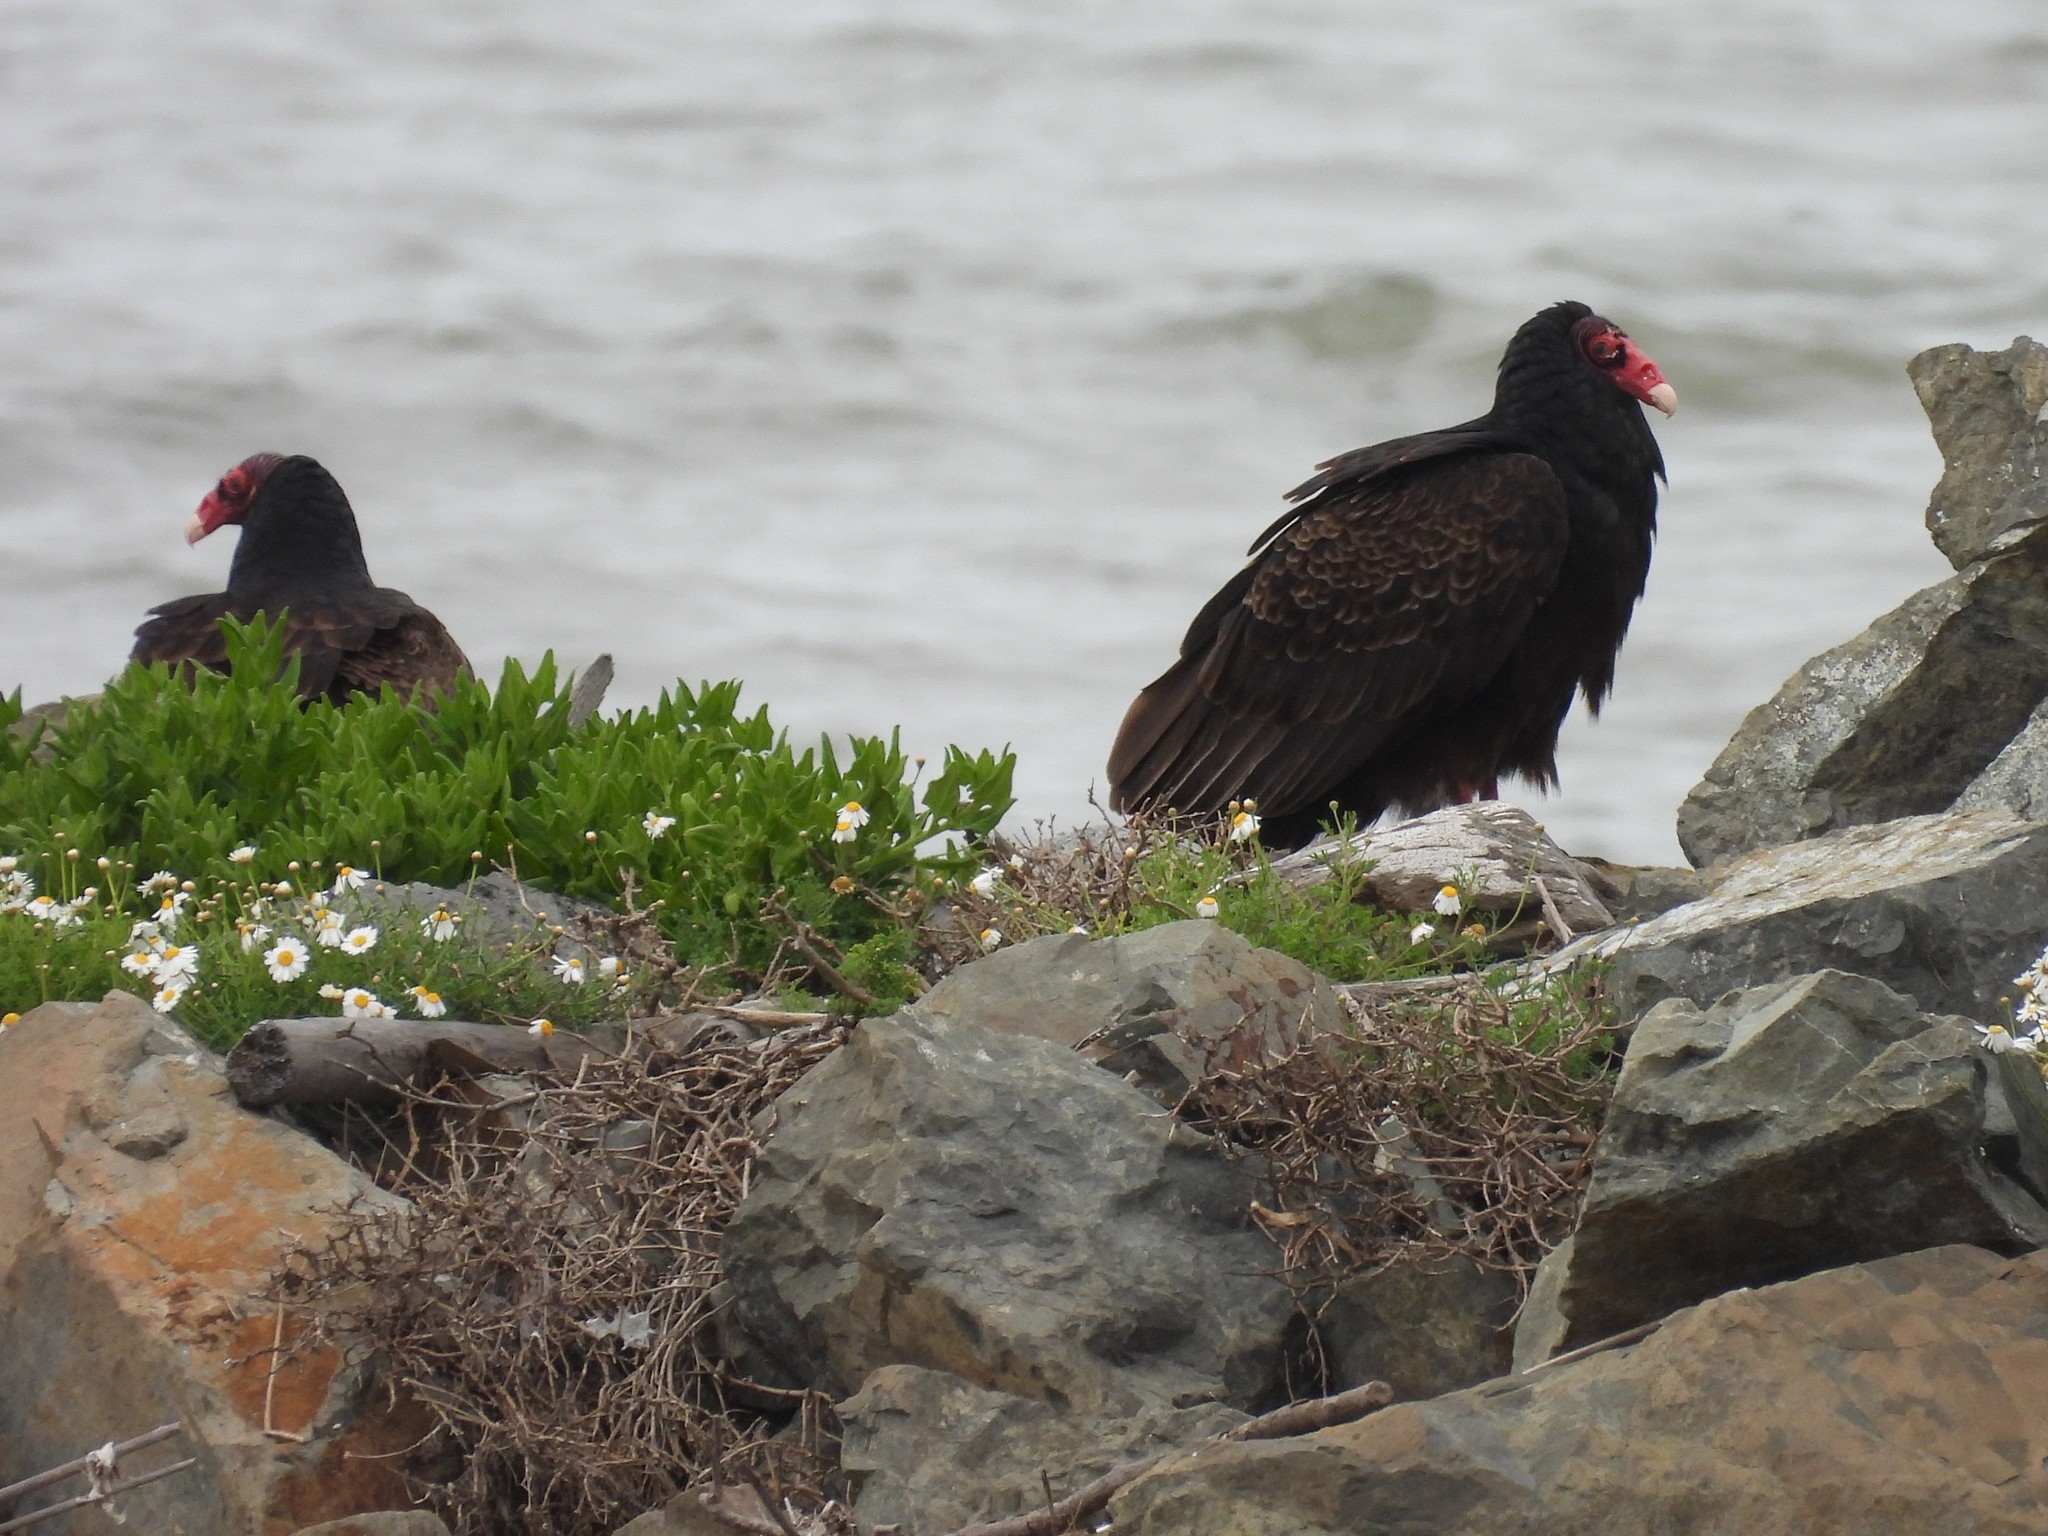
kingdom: Animalia
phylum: Chordata
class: Aves
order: Accipitriformes
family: Cathartidae
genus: Cathartes
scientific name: Cathartes aura
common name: Turkey vulture
